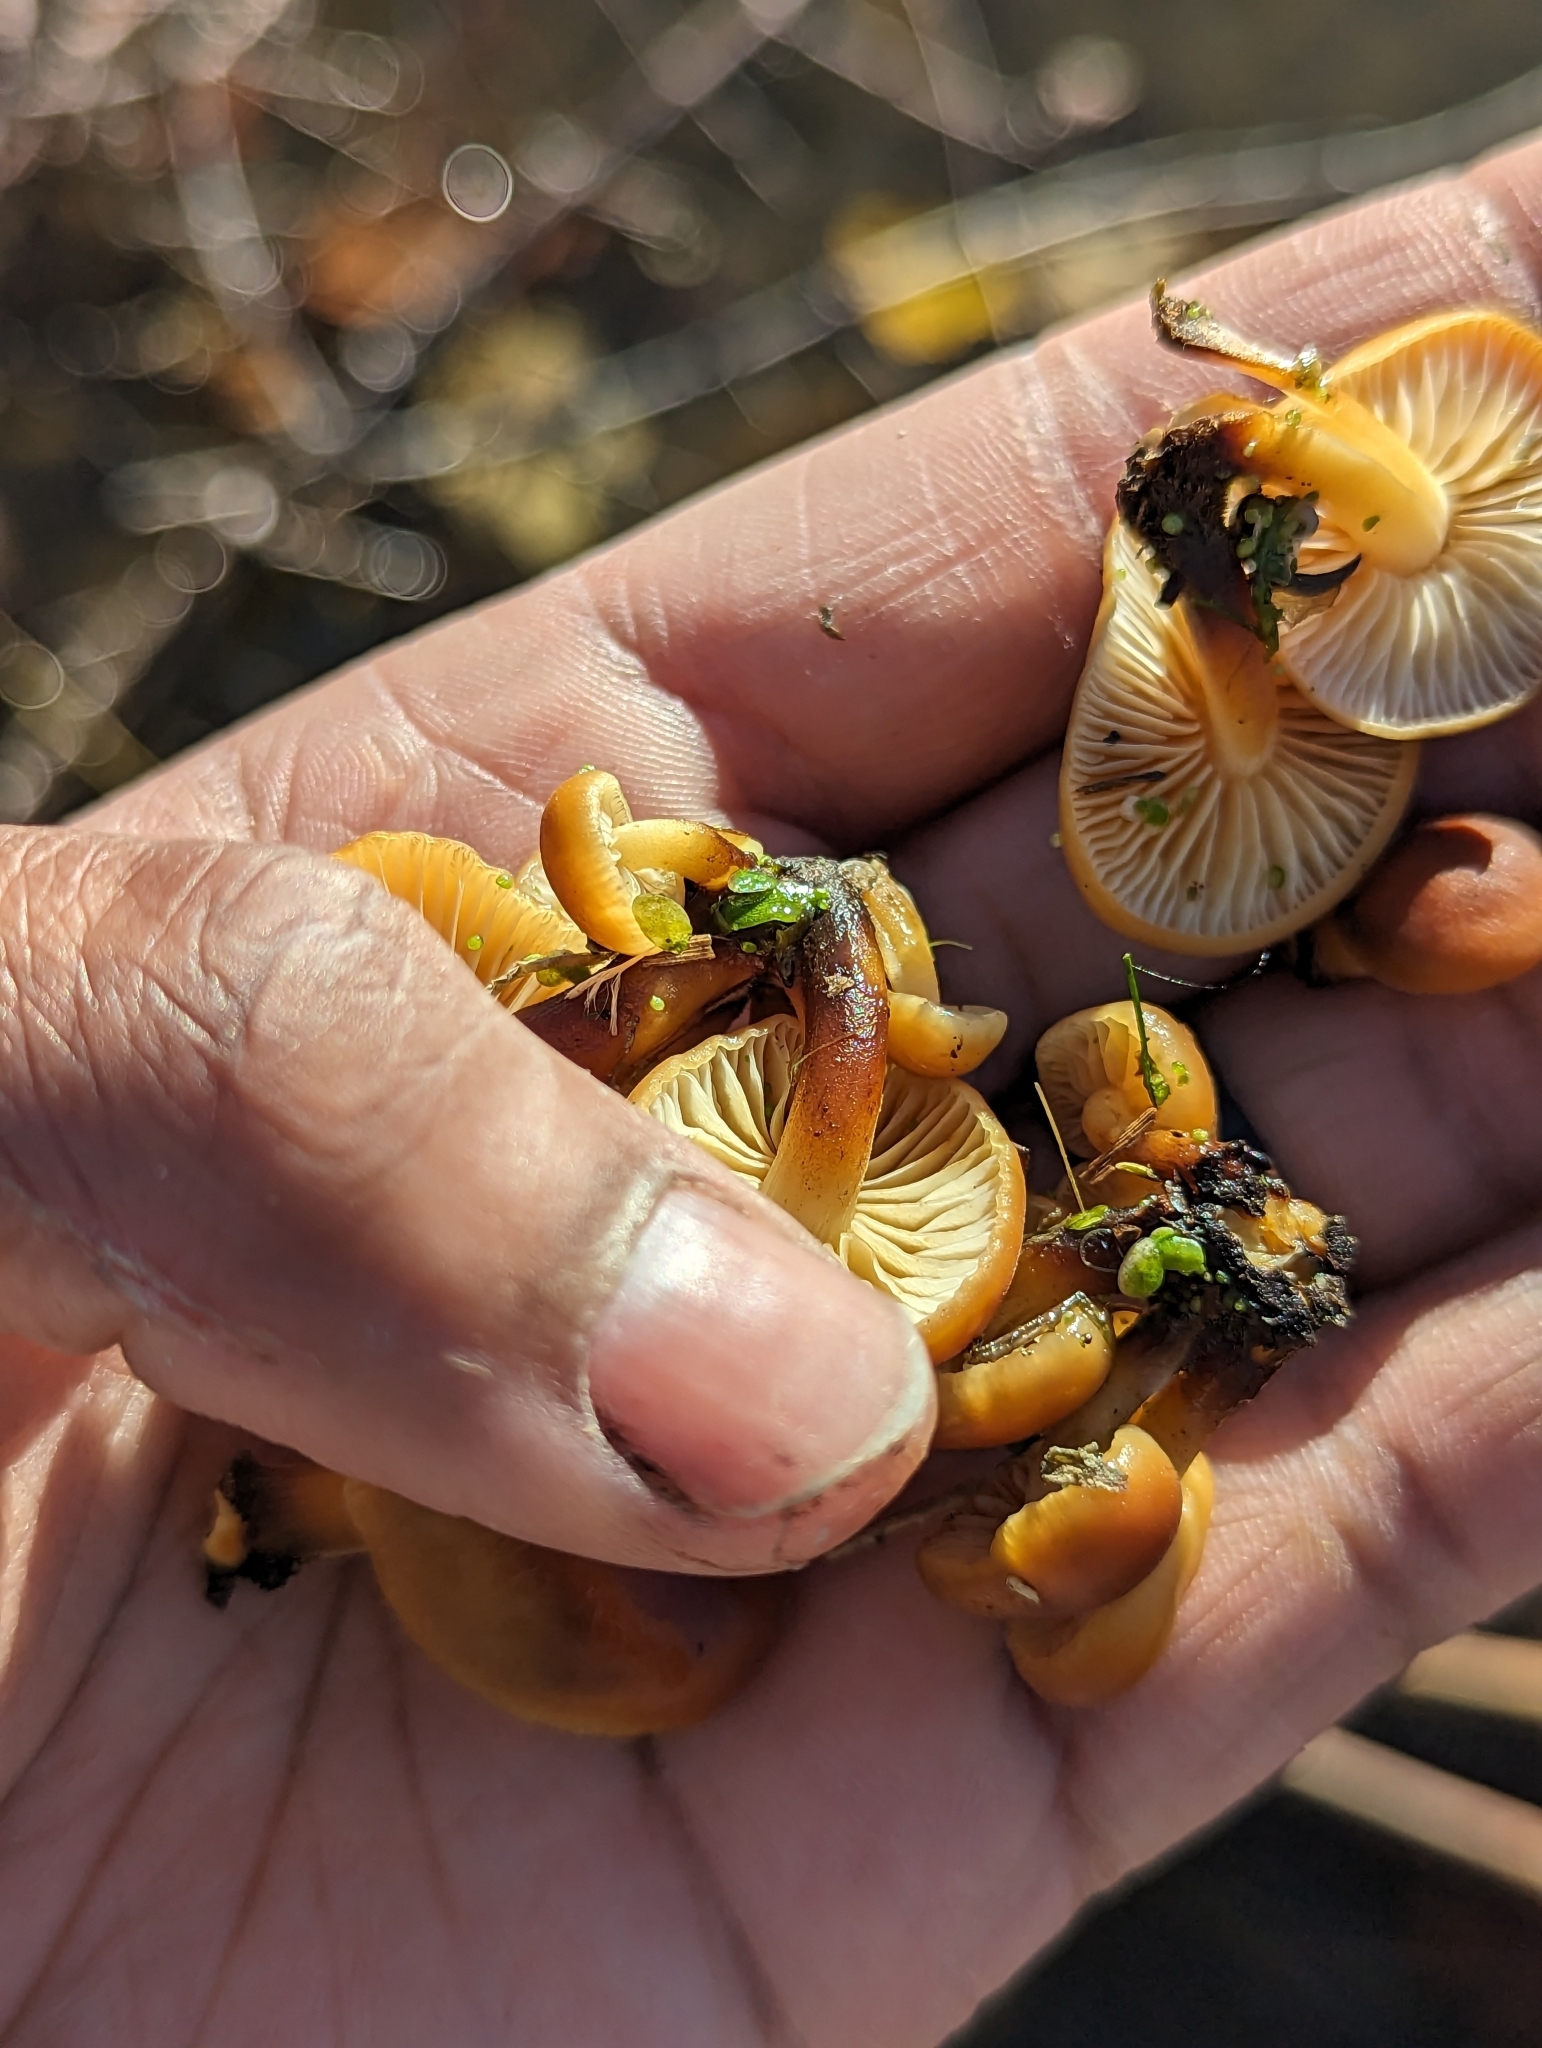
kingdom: Fungi
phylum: Basidiomycota
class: Agaricomycetes
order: Agaricales
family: Physalacriaceae
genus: Flammulina
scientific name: Flammulina velutipes
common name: Velvet shank
